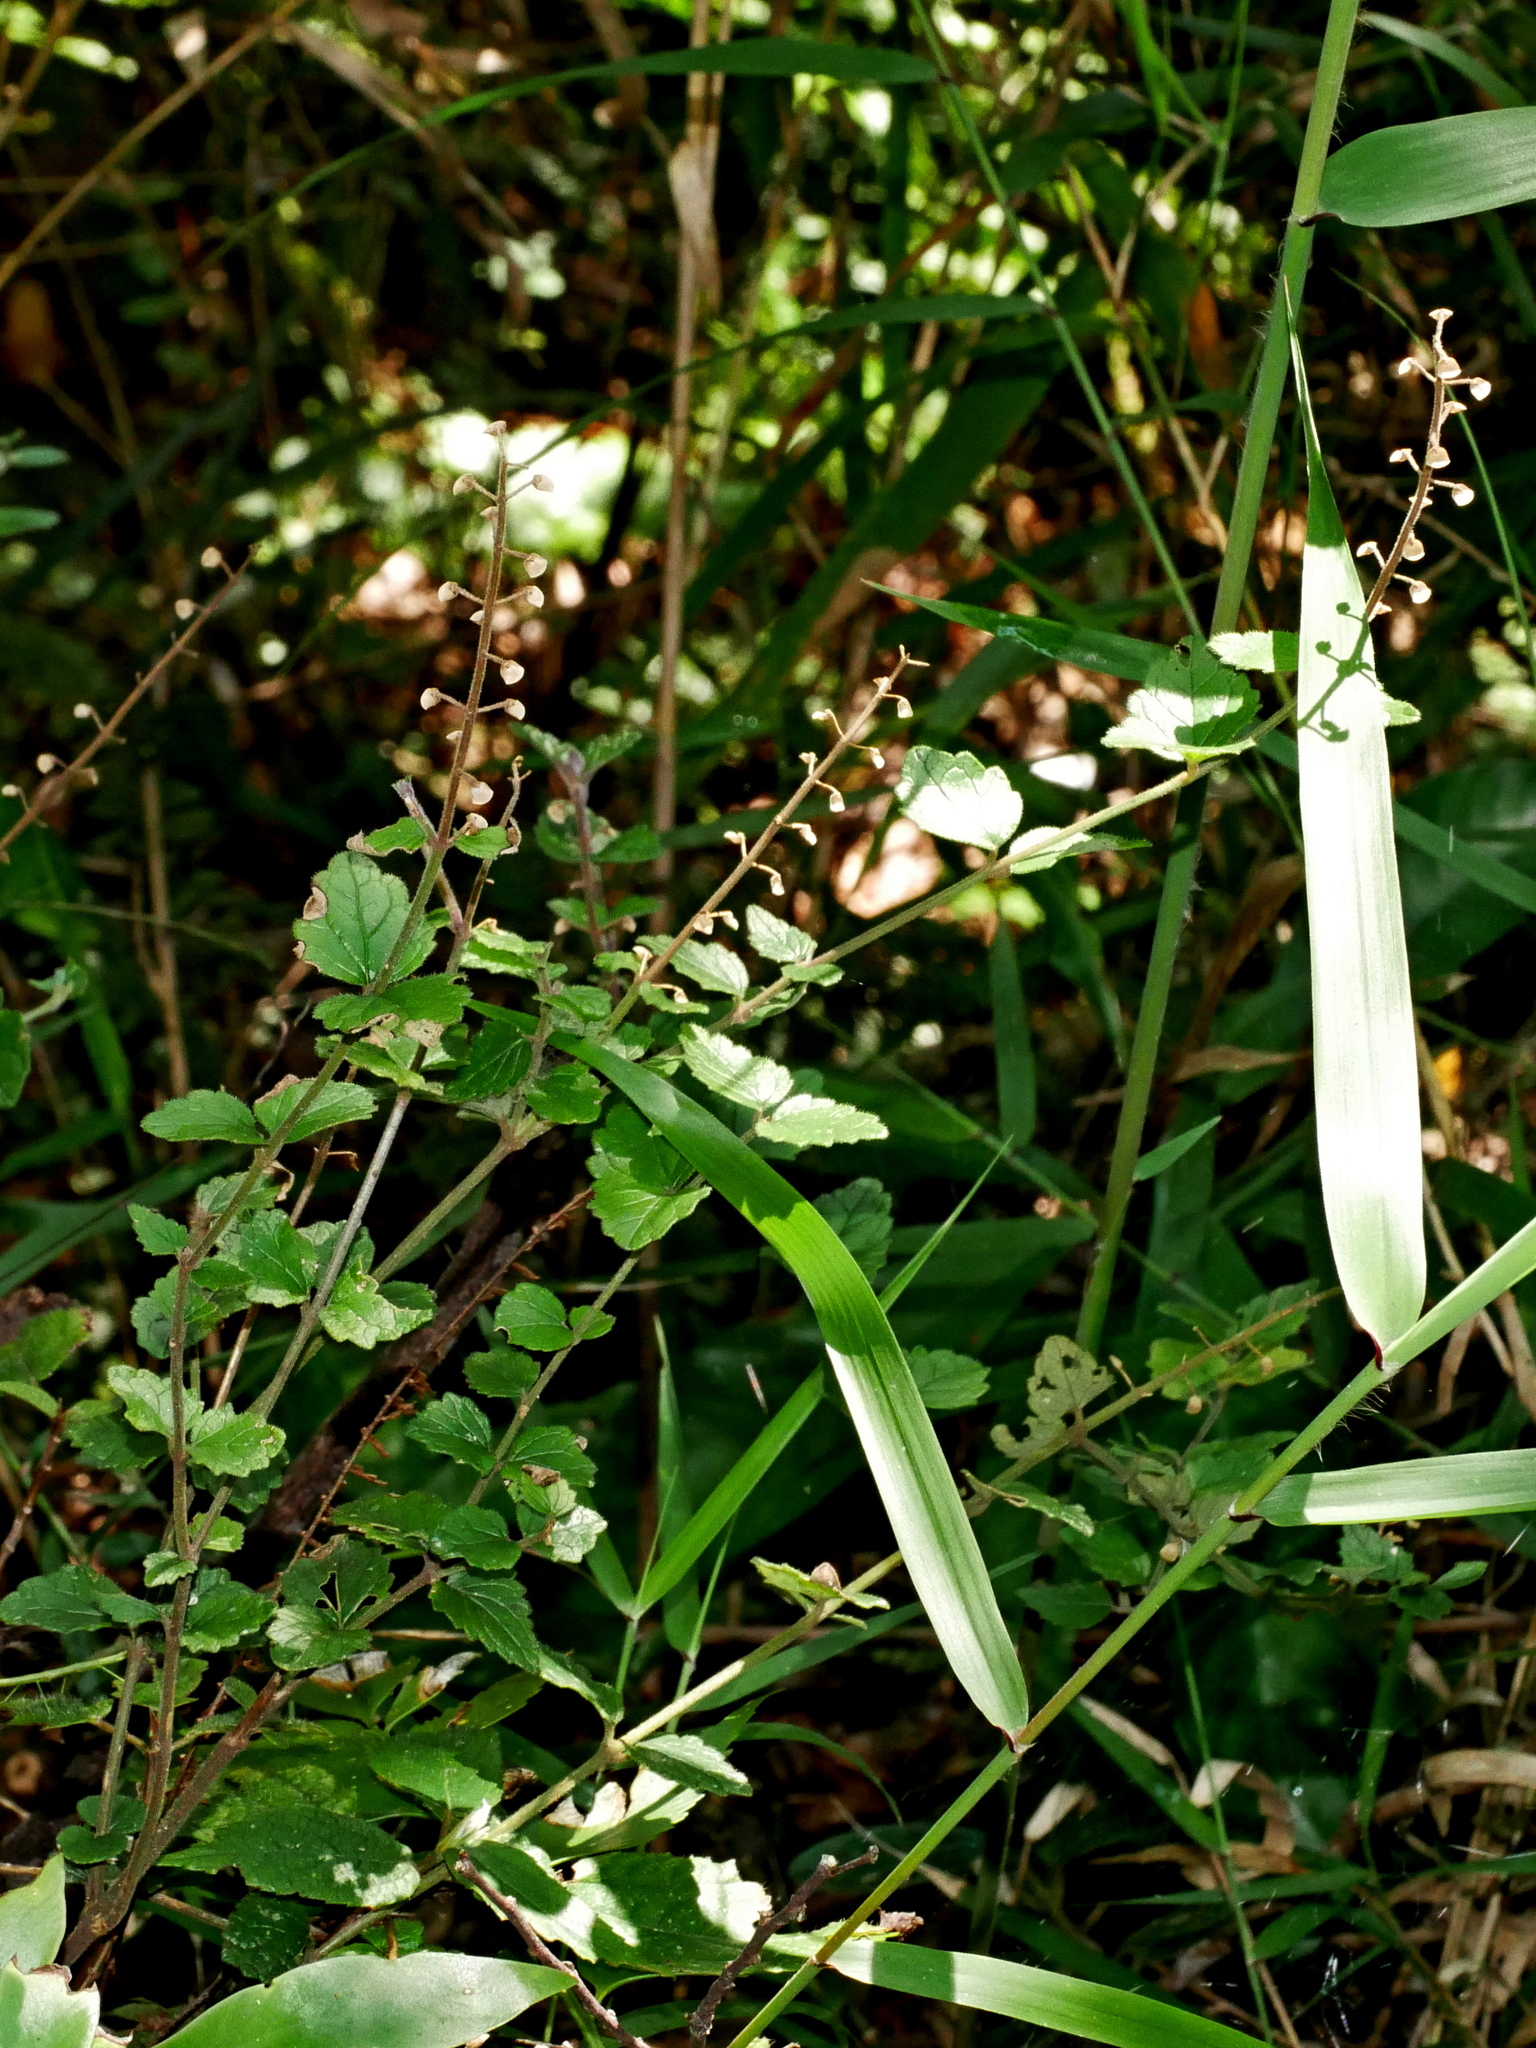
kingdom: Plantae
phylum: Tracheophyta
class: Magnoliopsida
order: Lamiales
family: Lamiaceae
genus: Scutellaria
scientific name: Scutellaria playfairii
